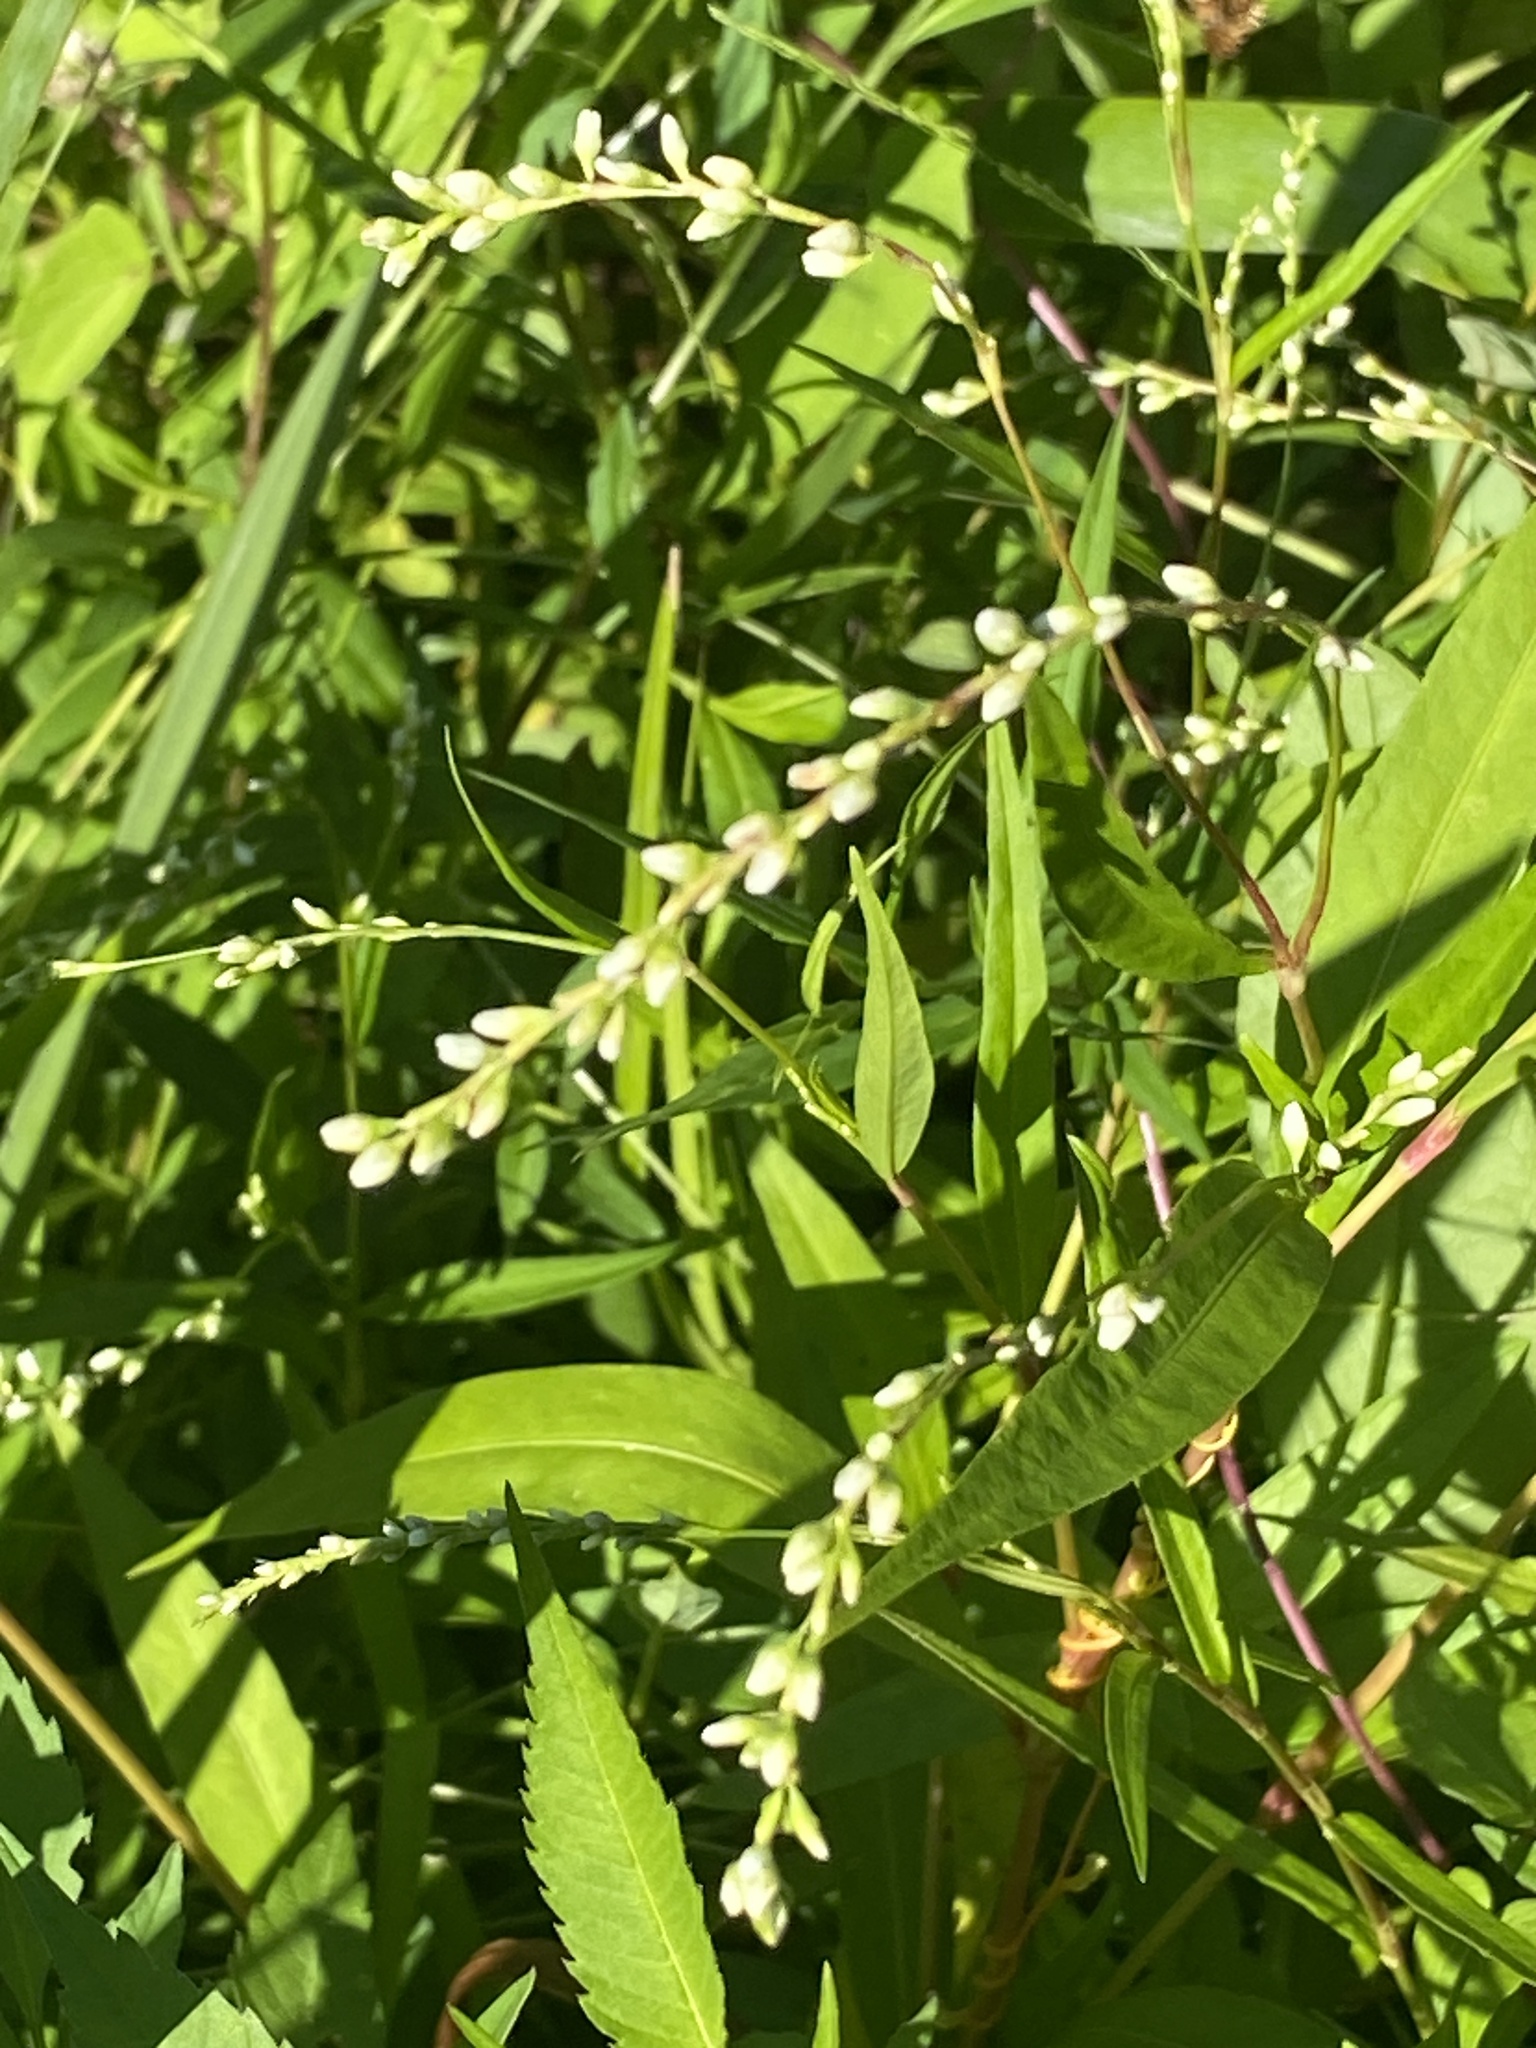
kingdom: Plantae
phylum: Tracheophyta
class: Magnoliopsida
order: Caryophyllales
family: Polygonaceae
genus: Persicaria
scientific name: Persicaria punctata
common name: Dotted smartweed
